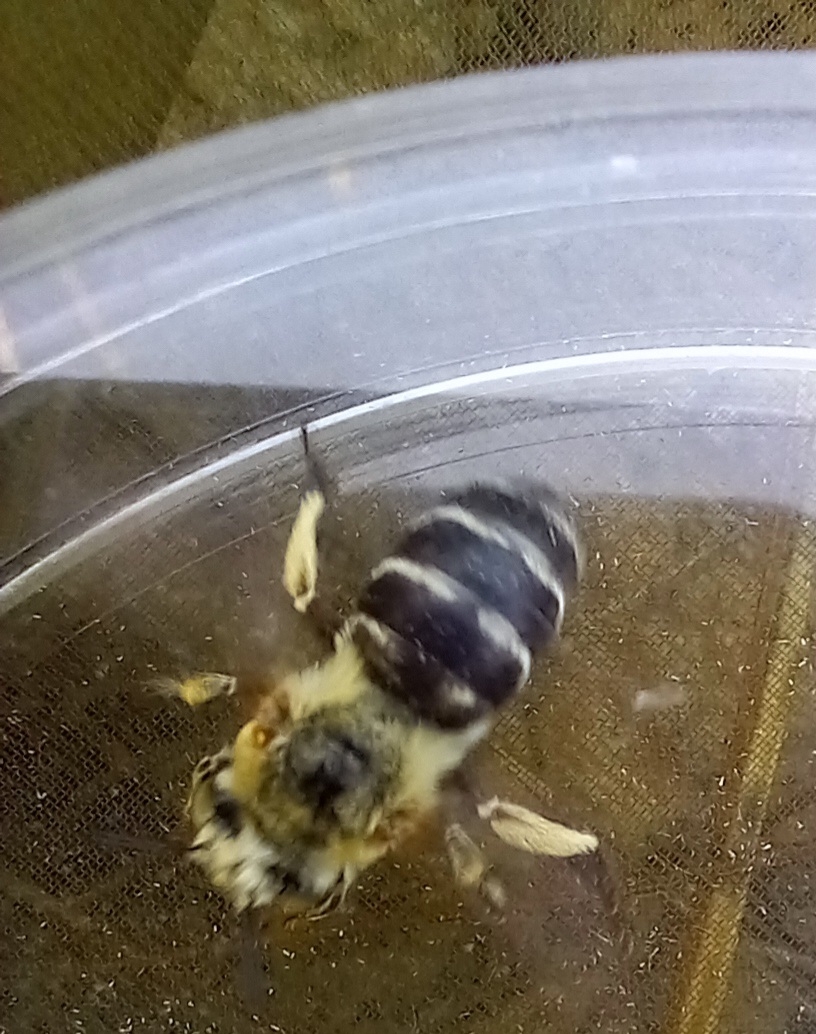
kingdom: Animalia
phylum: Arthropoda
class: Insecta
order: Hymenoptera
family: Apidae
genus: Amegilla
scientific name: Amegilla quadrifasciata
